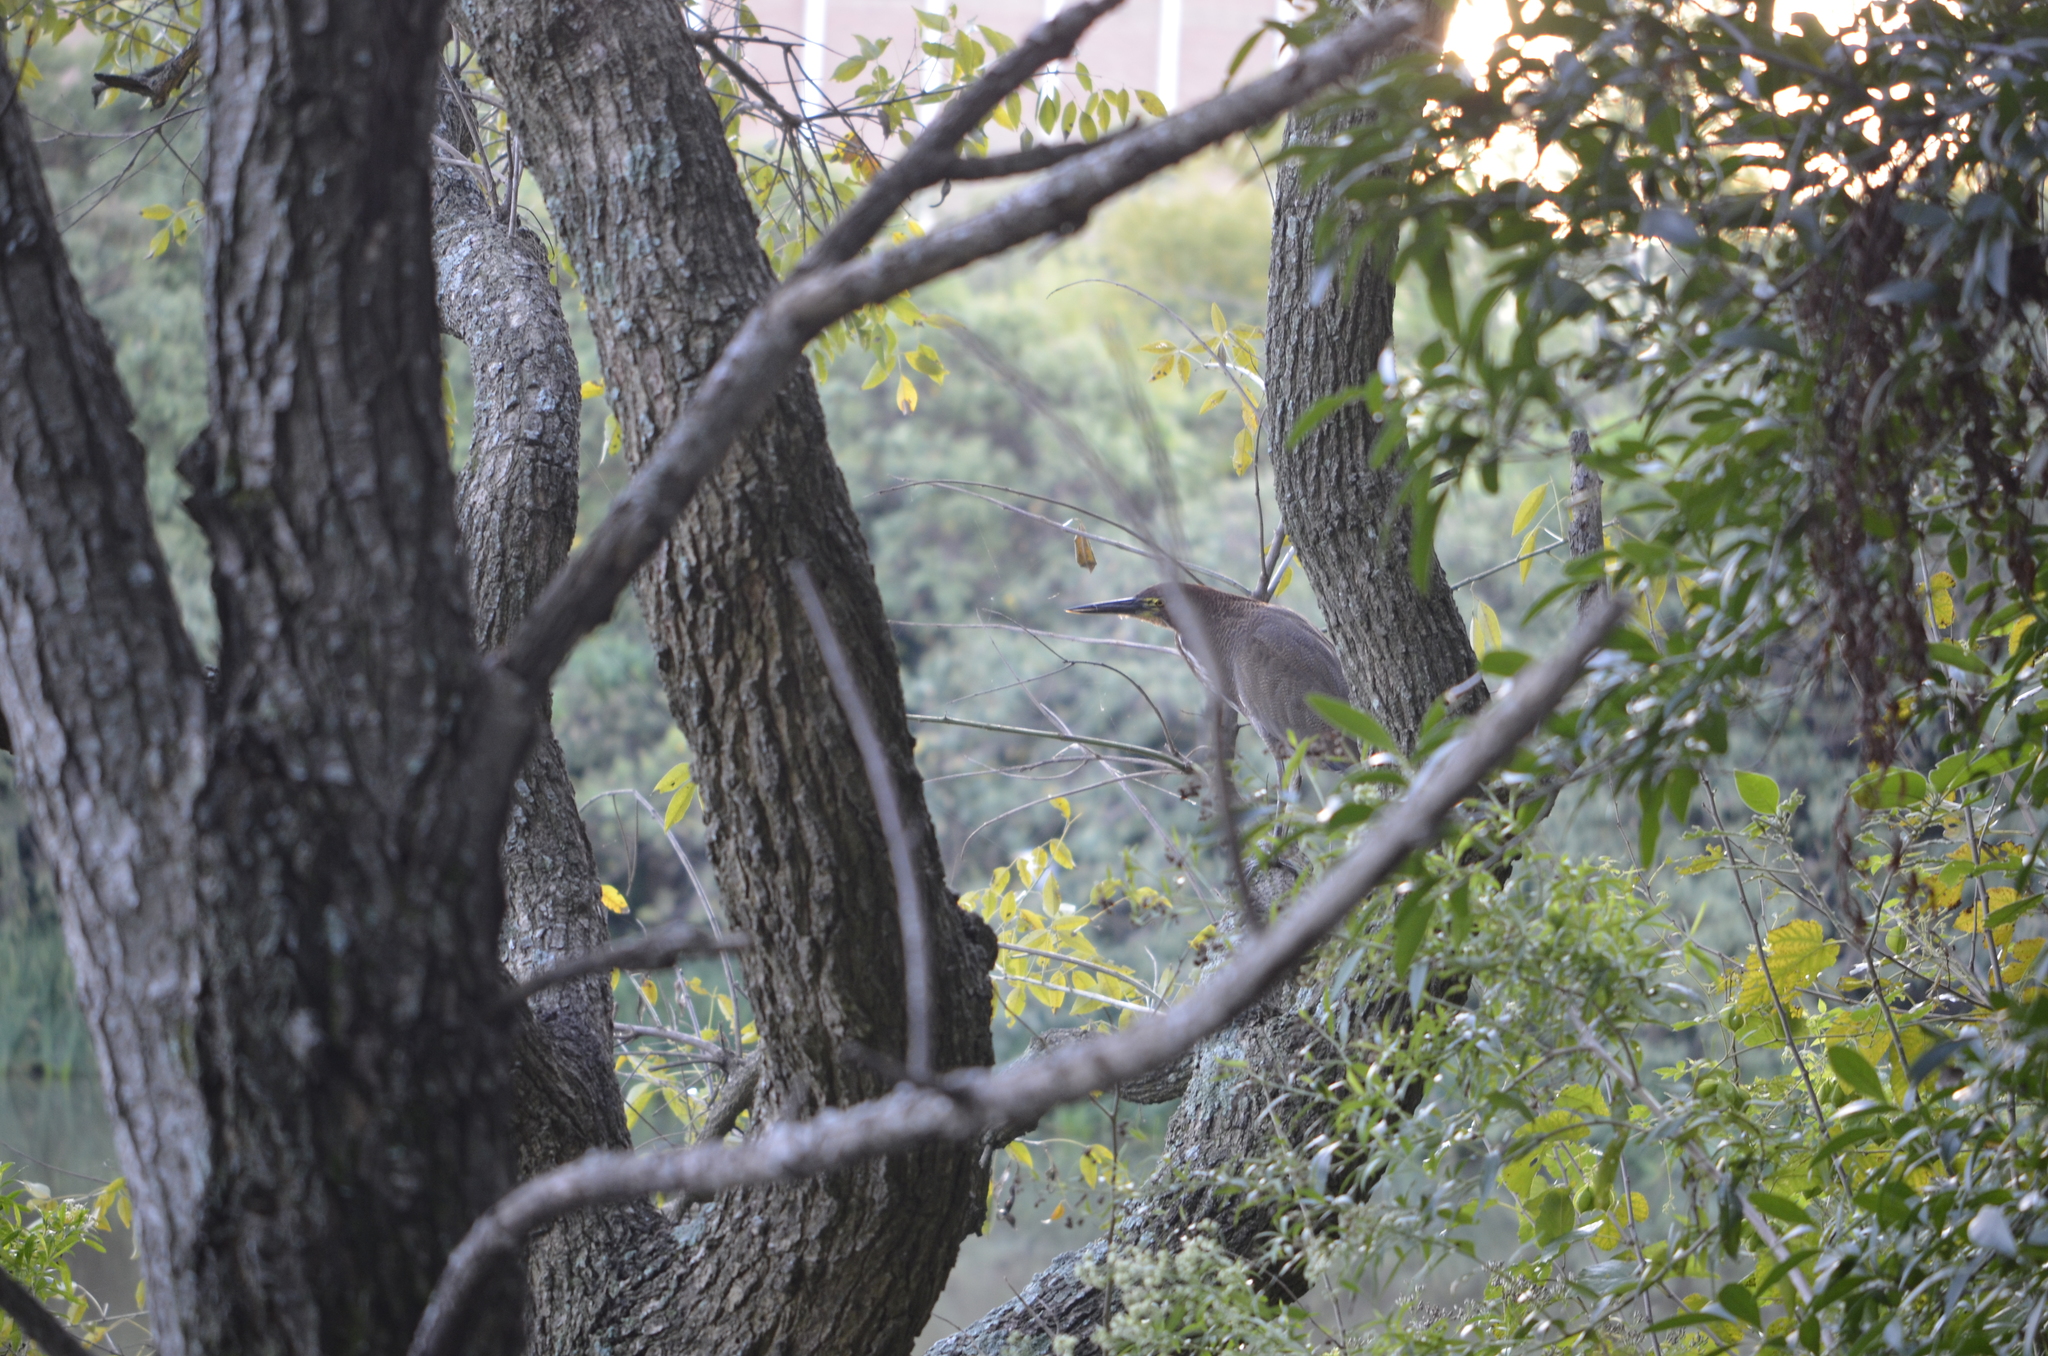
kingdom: Animalia
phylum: Chordata
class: Aves
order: Pelecaniformes
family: Ardeidae
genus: Tigrisoma
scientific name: Tigrisoma lineatum
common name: Rufescent tiger-heron
